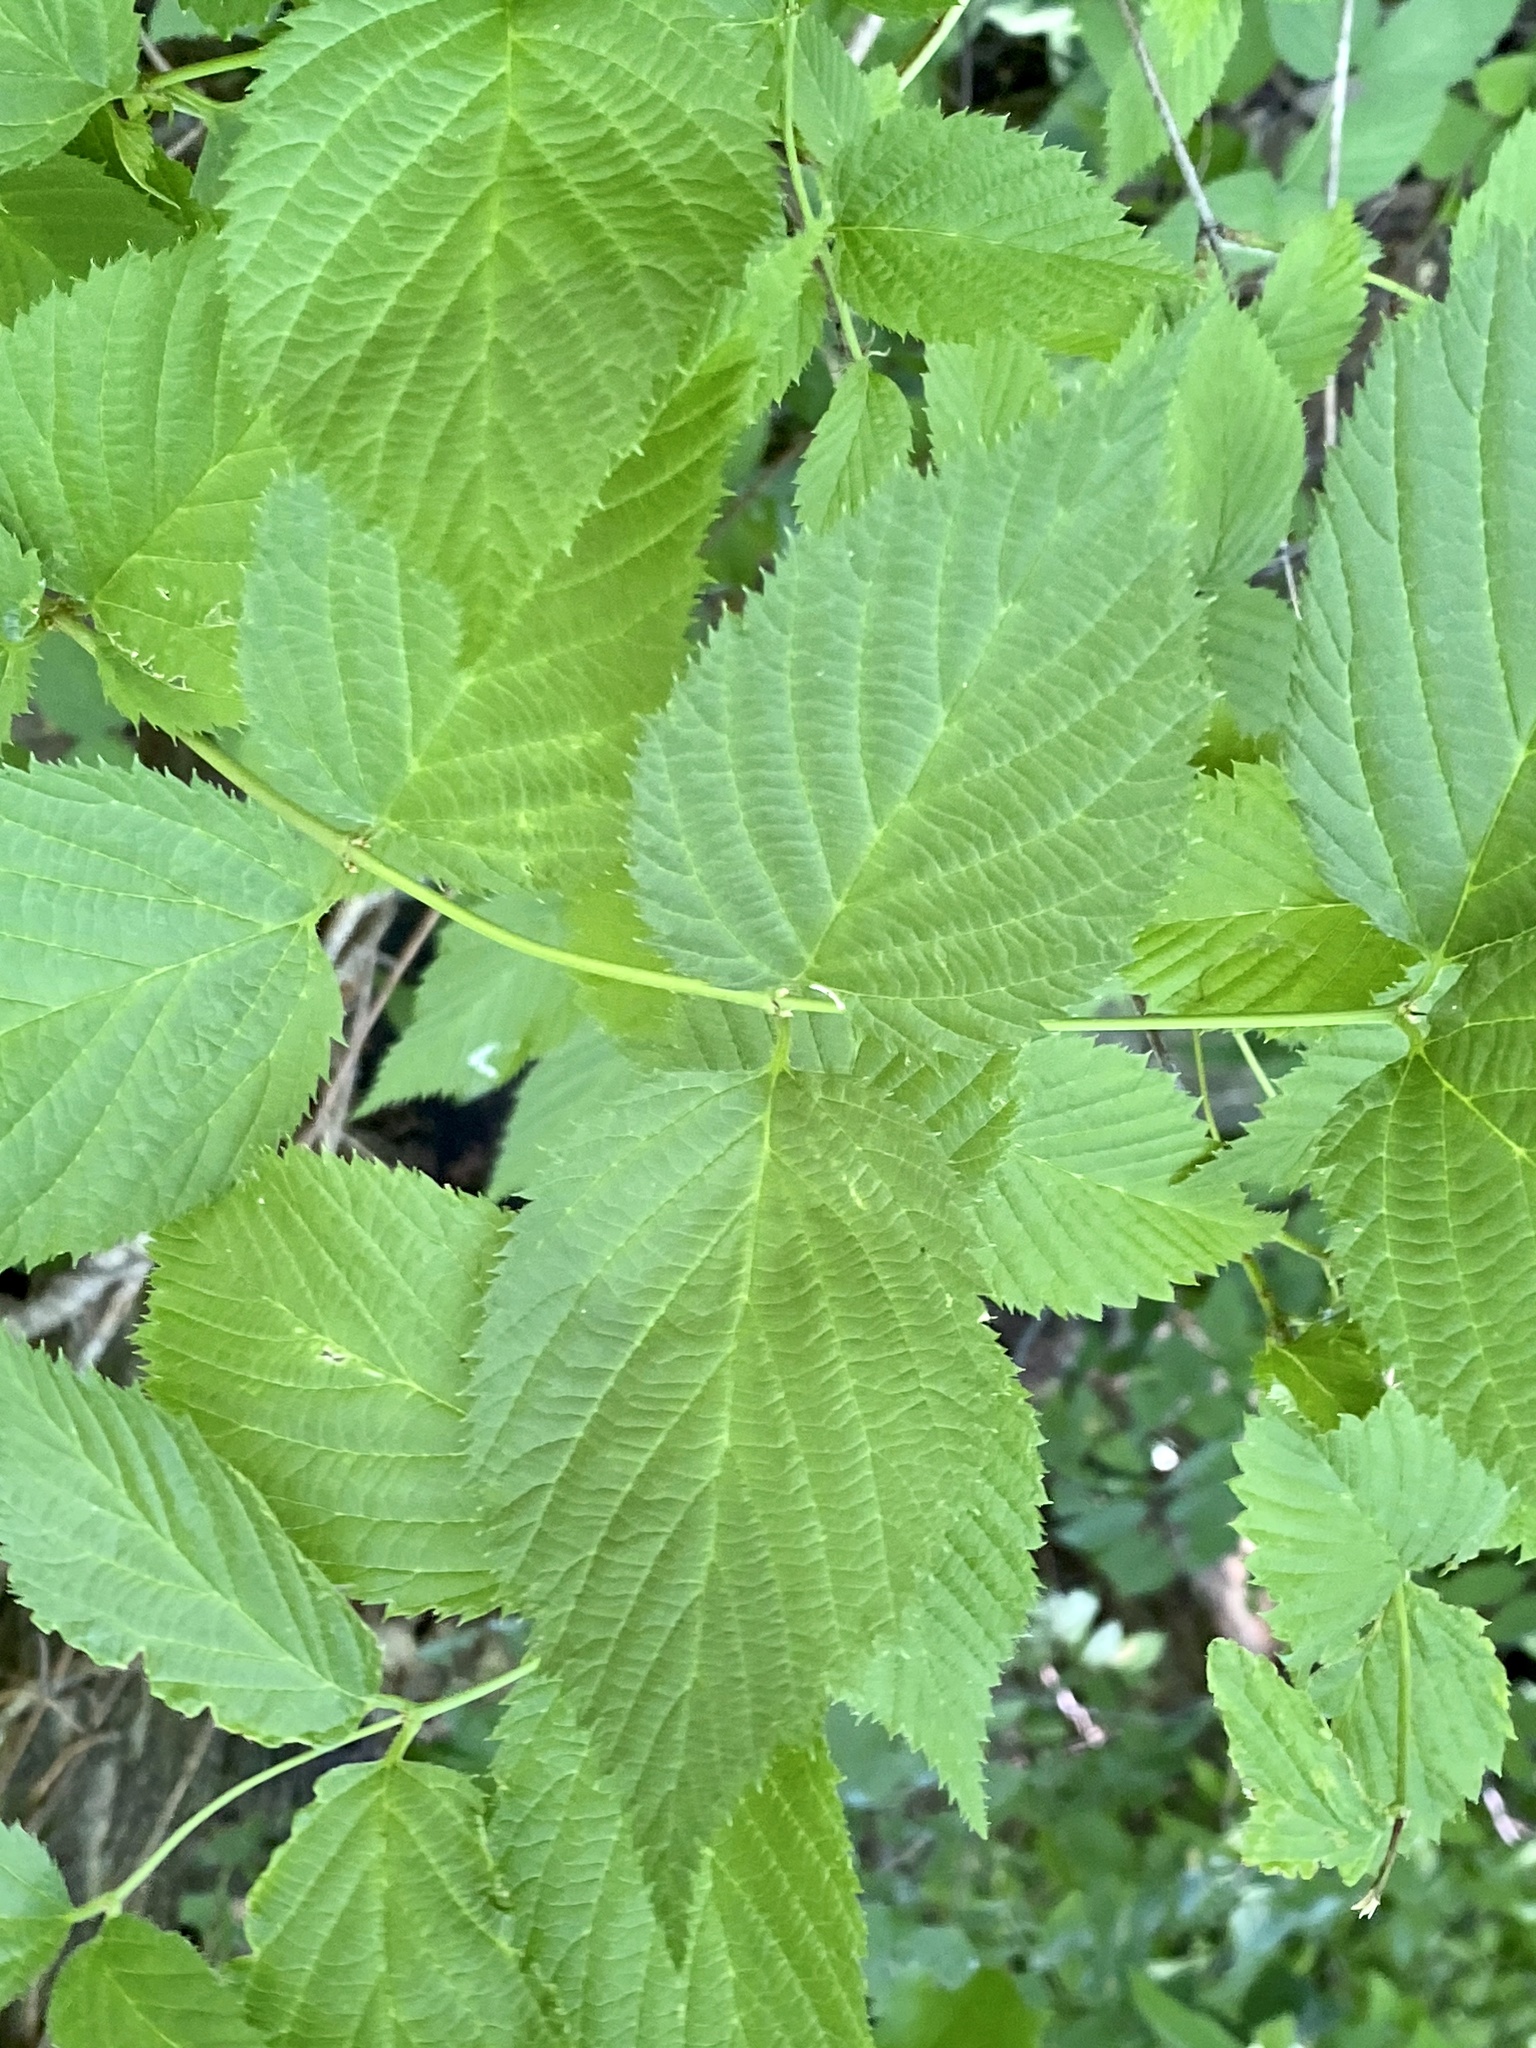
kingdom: Plantae
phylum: Tracheophyta
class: Magnoliopsida
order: Rosales
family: Rosaceae
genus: Rhodotypos
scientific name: Rhodotypos scandens
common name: Jetbead
